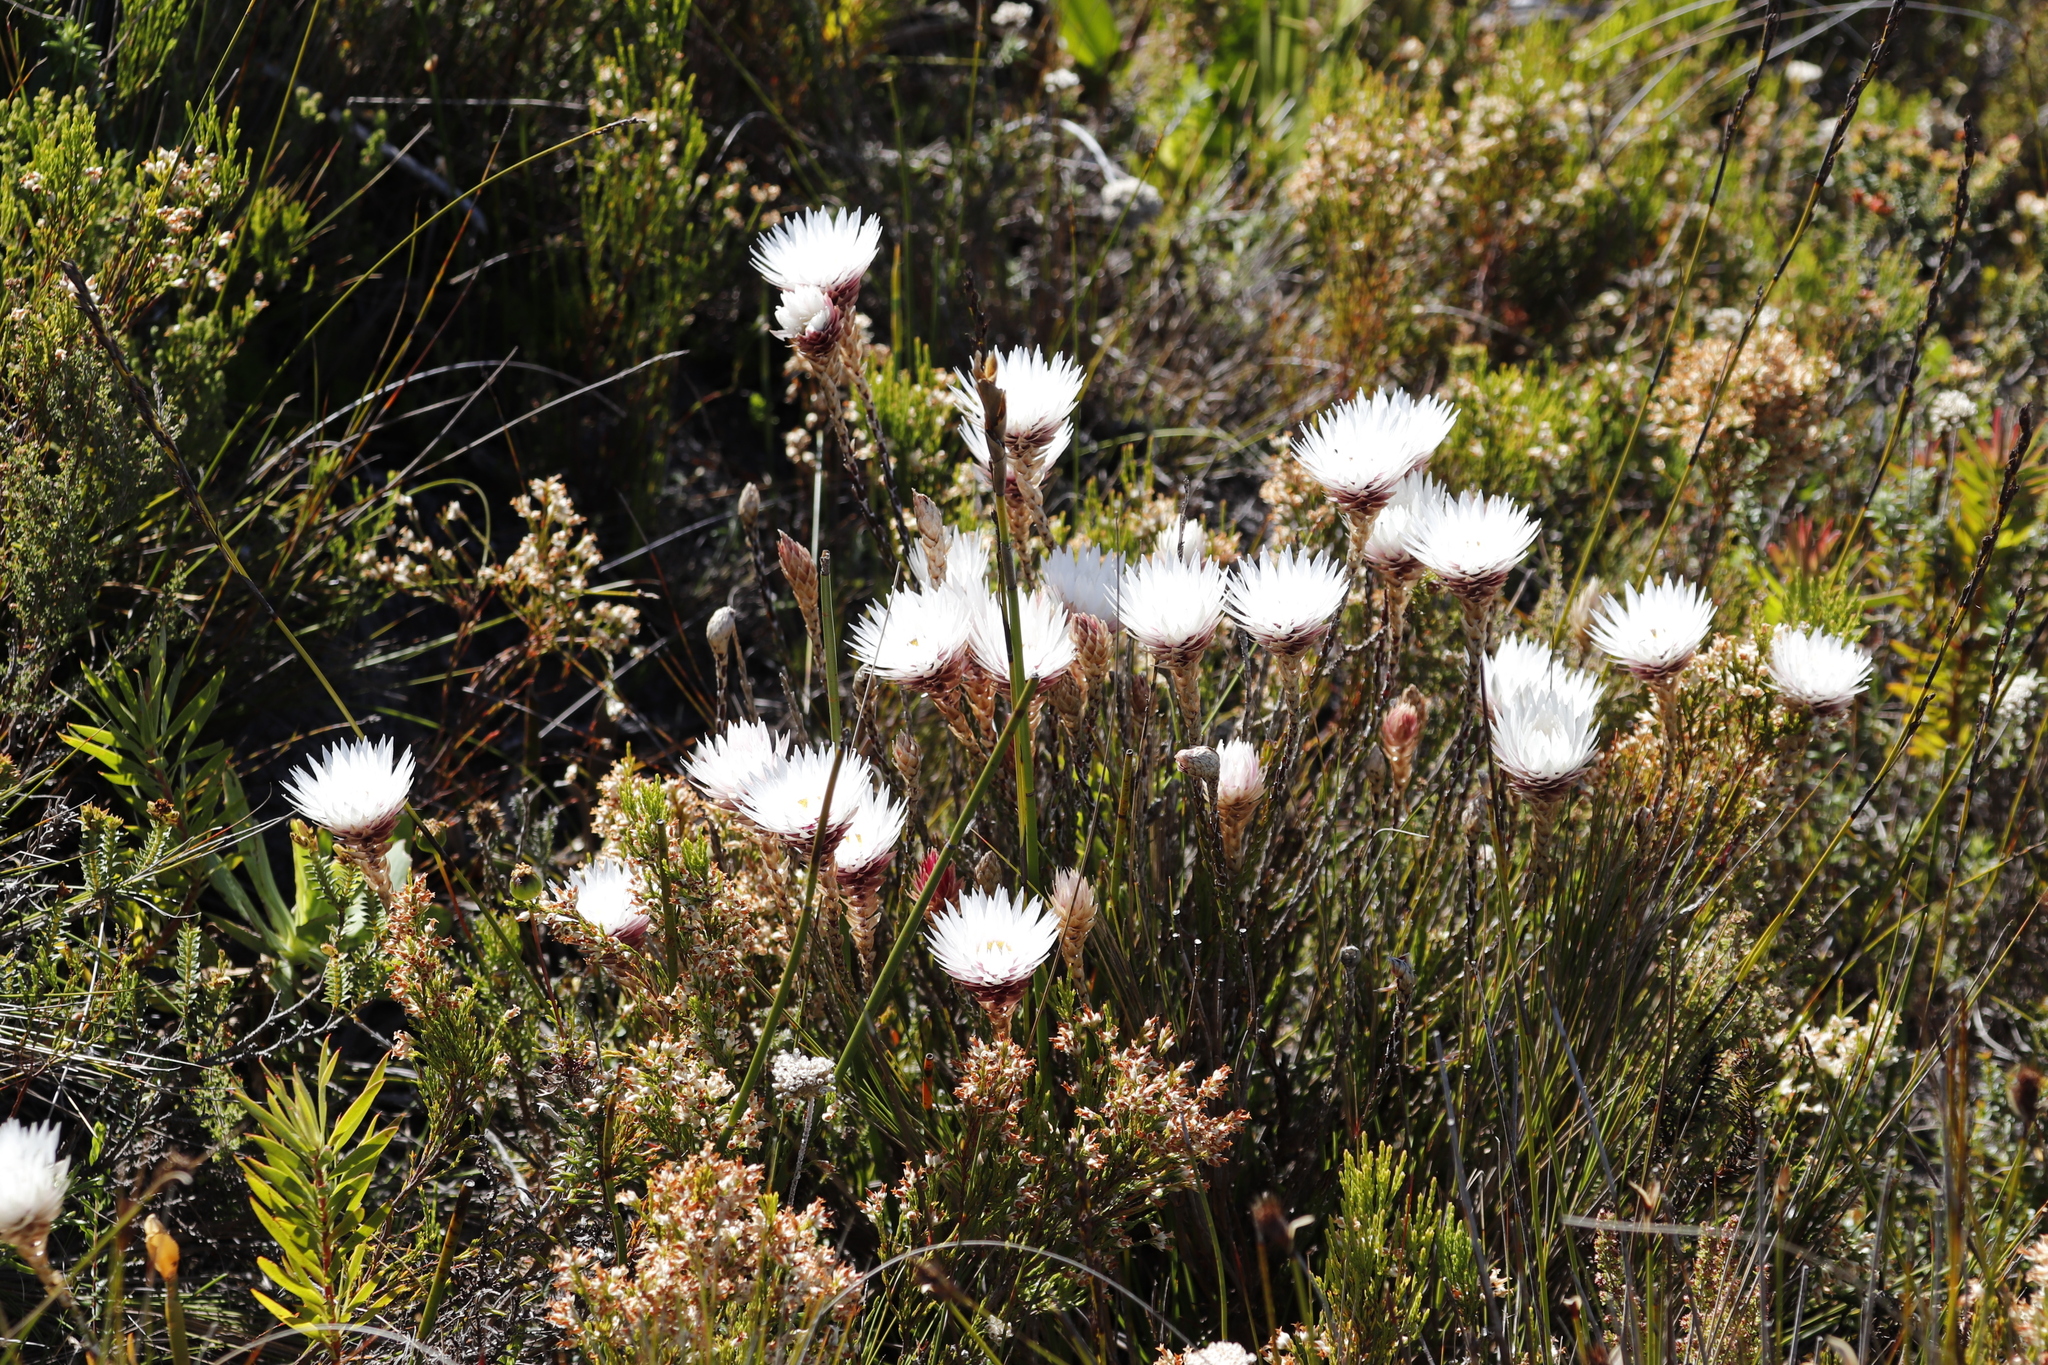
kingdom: Plantae
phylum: Tracheophyta
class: Magnoliopsida
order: Asterales
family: Asteraceae
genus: Edmondia
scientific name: Edmondia pinifolia
